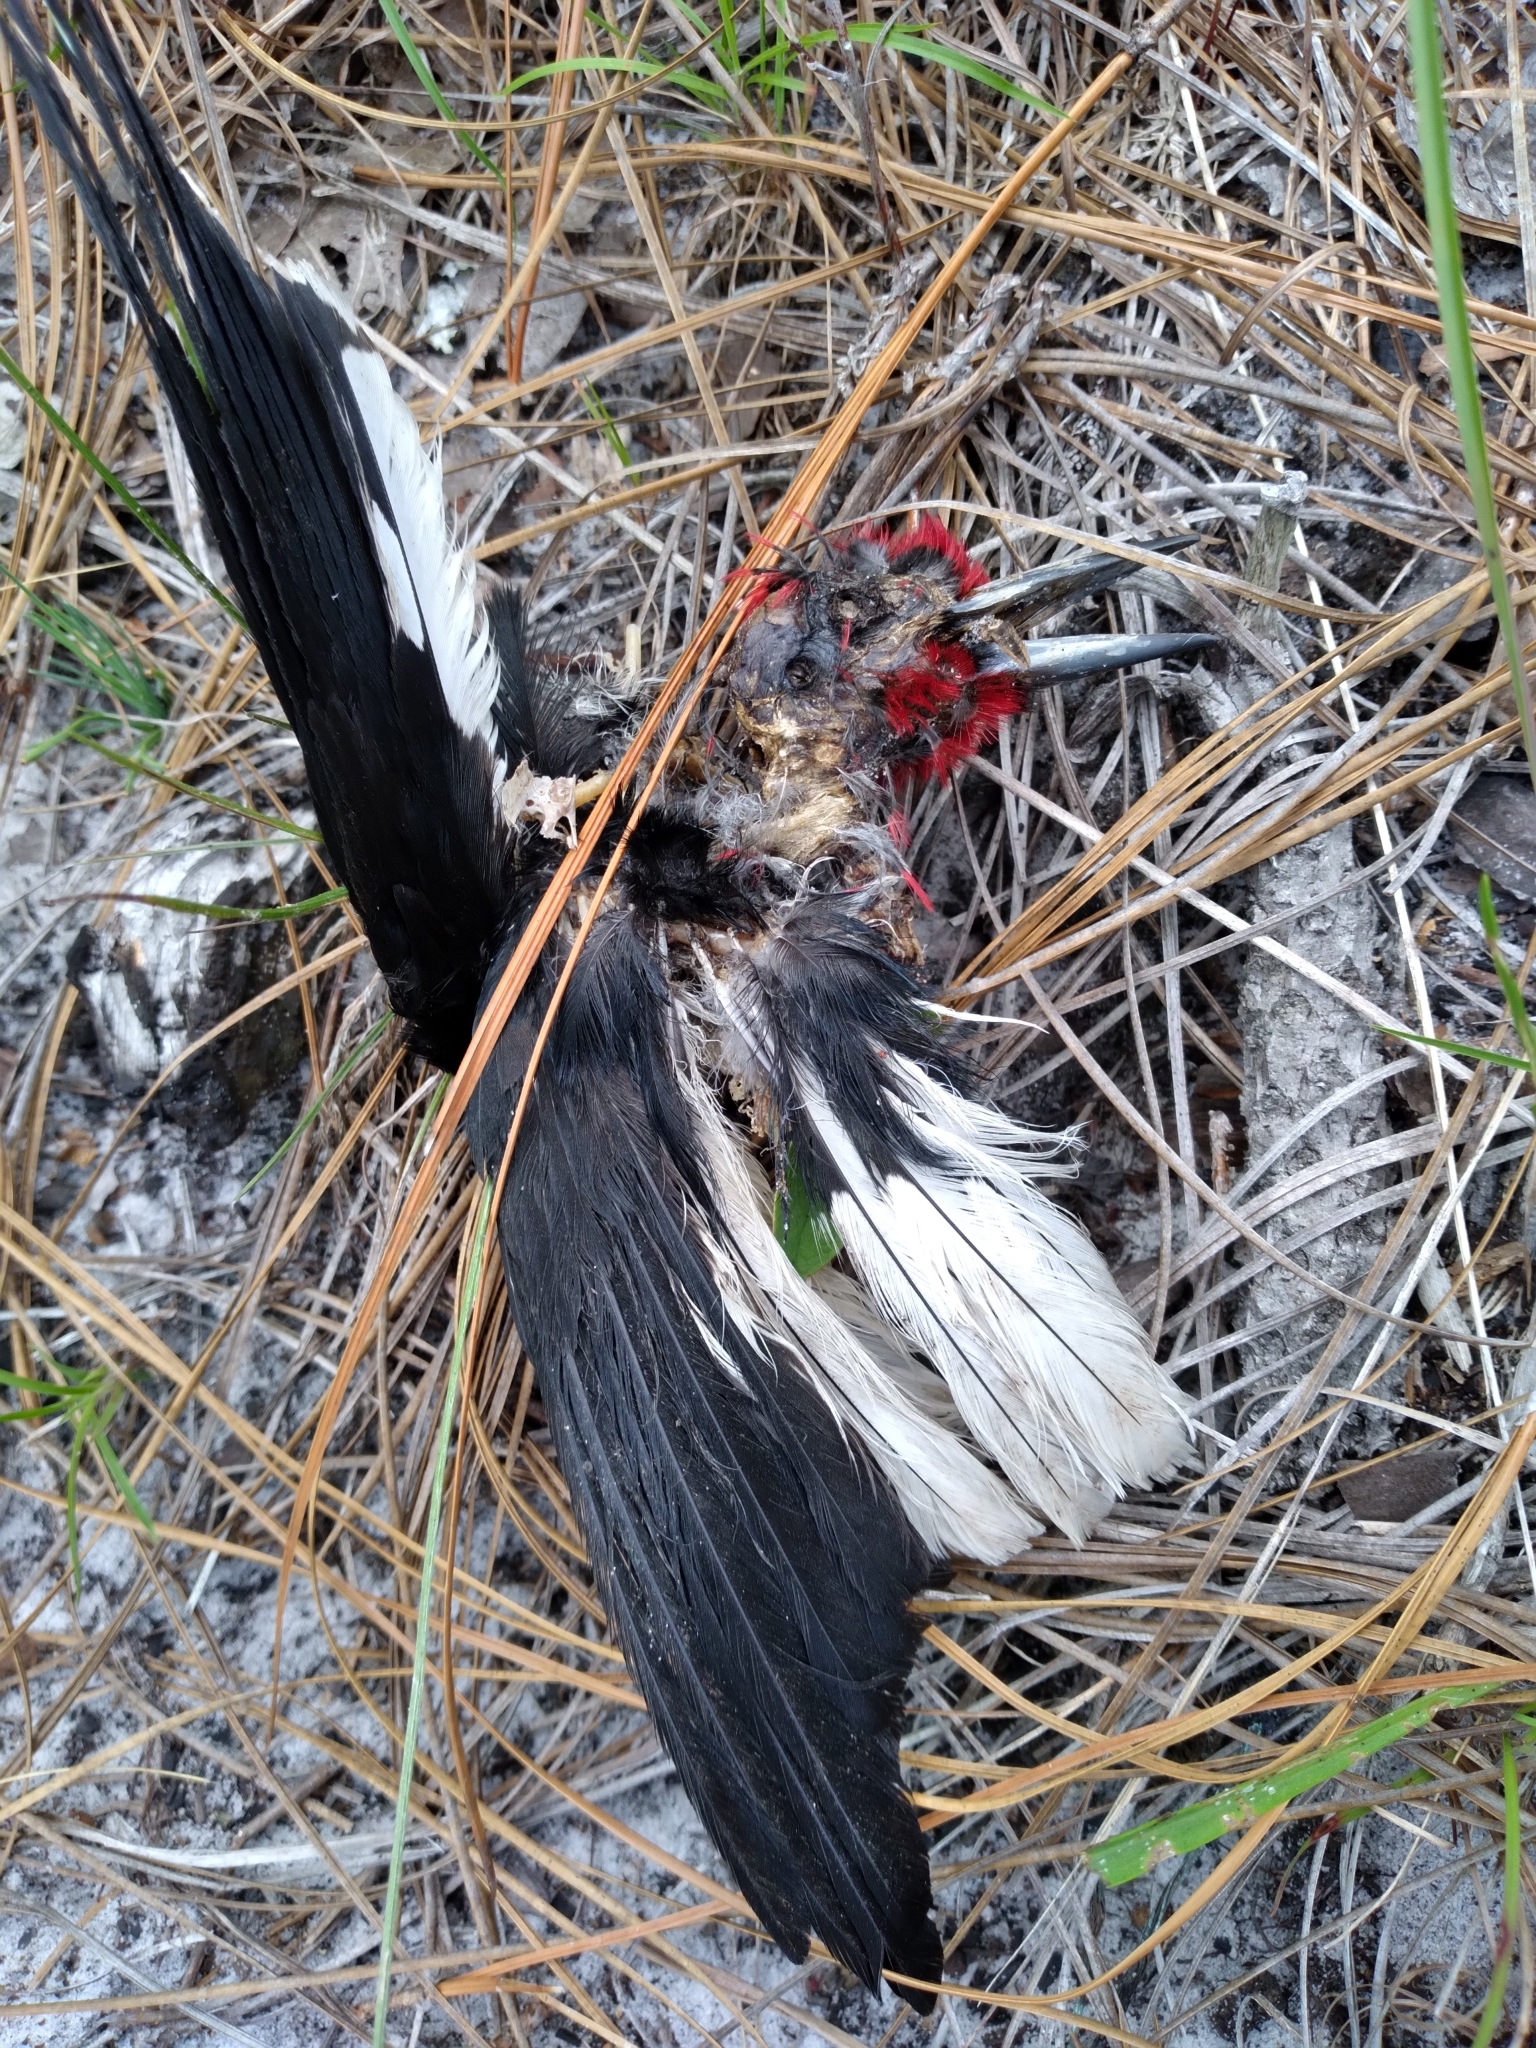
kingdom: Animalia
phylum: Chordata
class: Aves
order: Piciformes
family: Picidae
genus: Melanerpes
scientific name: Melanerpes erythrocephalus
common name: Red-headed woodpecker
